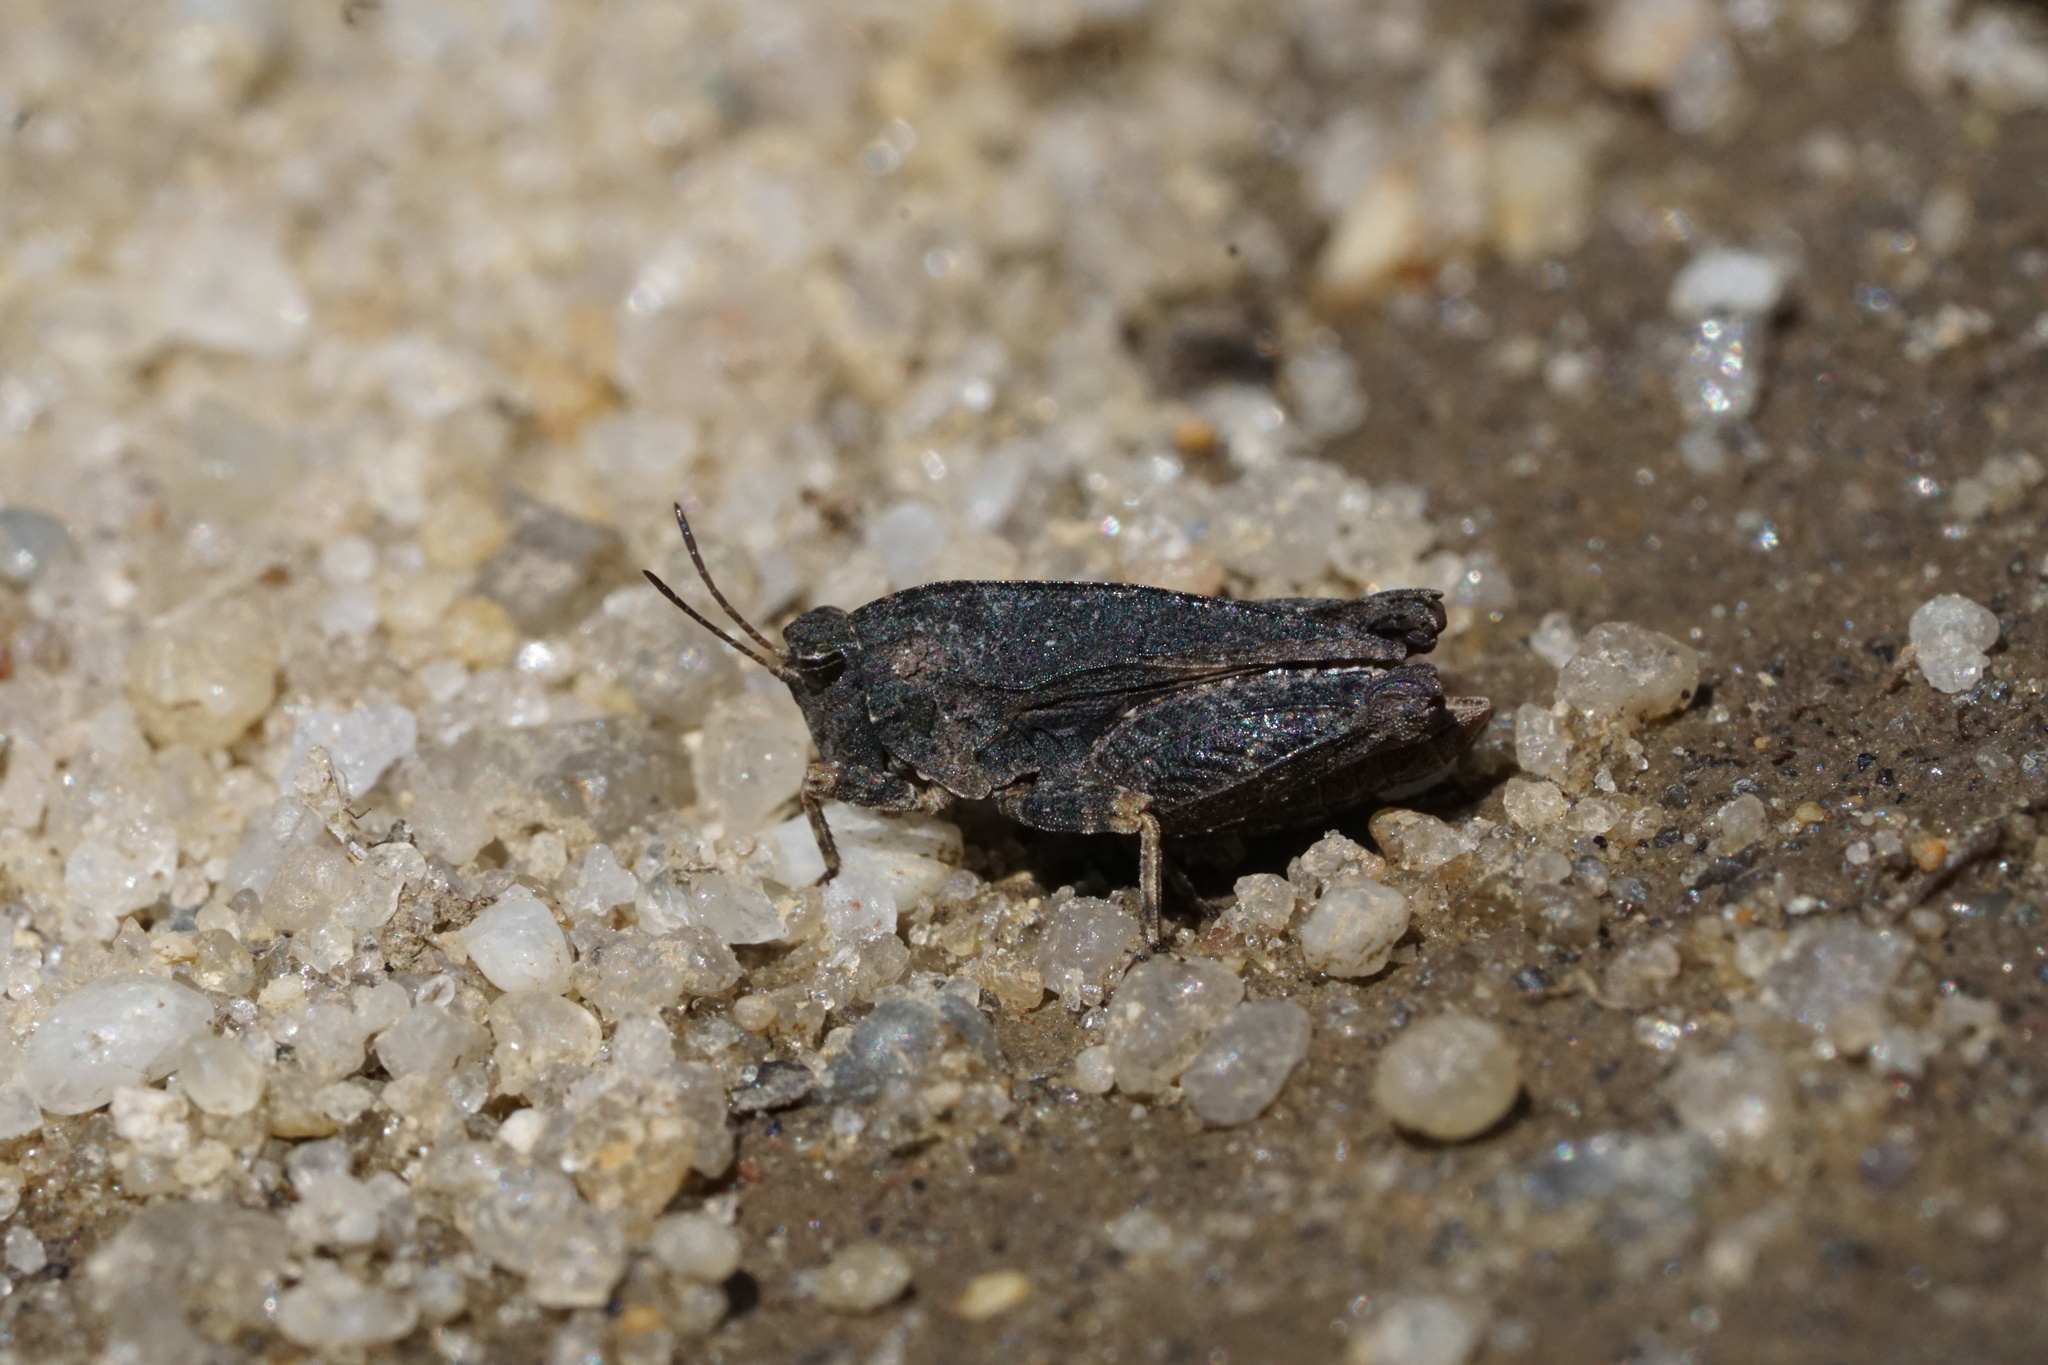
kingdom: Animalia
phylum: Arthropoda
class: Insecta
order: Orthoptera
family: Tetrigidae
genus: Nomotettix
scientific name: Nomotettix cristatus
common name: Crested grouse locust
